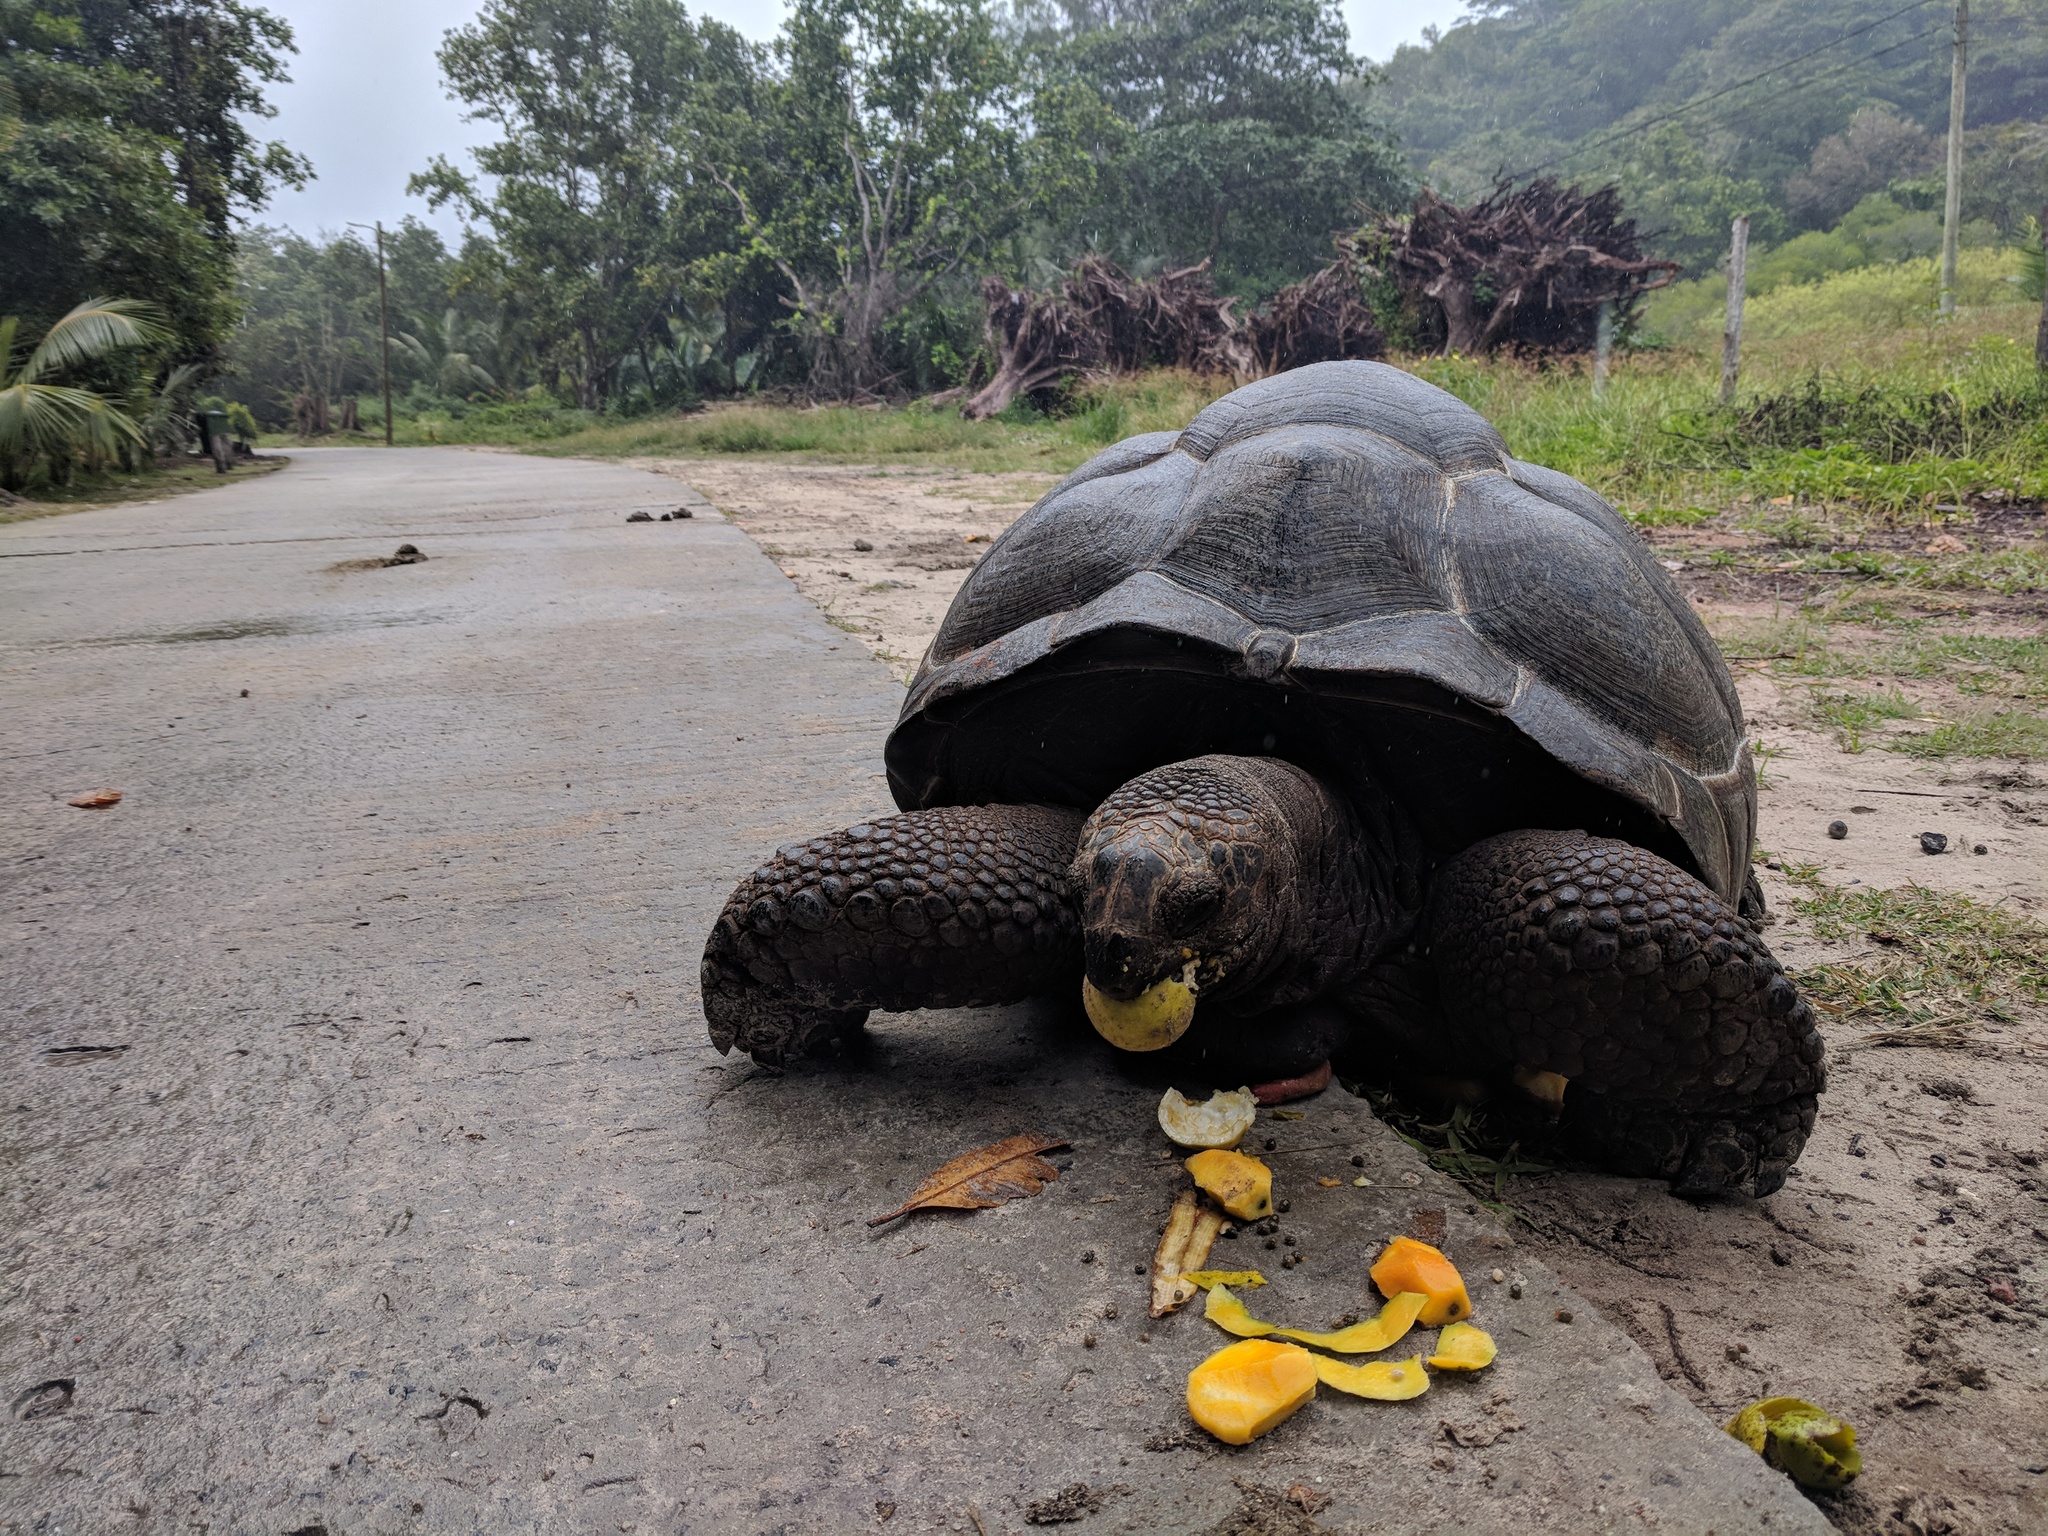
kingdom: Animalia
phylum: Chordata
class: Testudines
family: Testudinidae
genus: Aldabrachelys
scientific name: Aldabrachelys gigantea
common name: Aldabra giant tortoise
